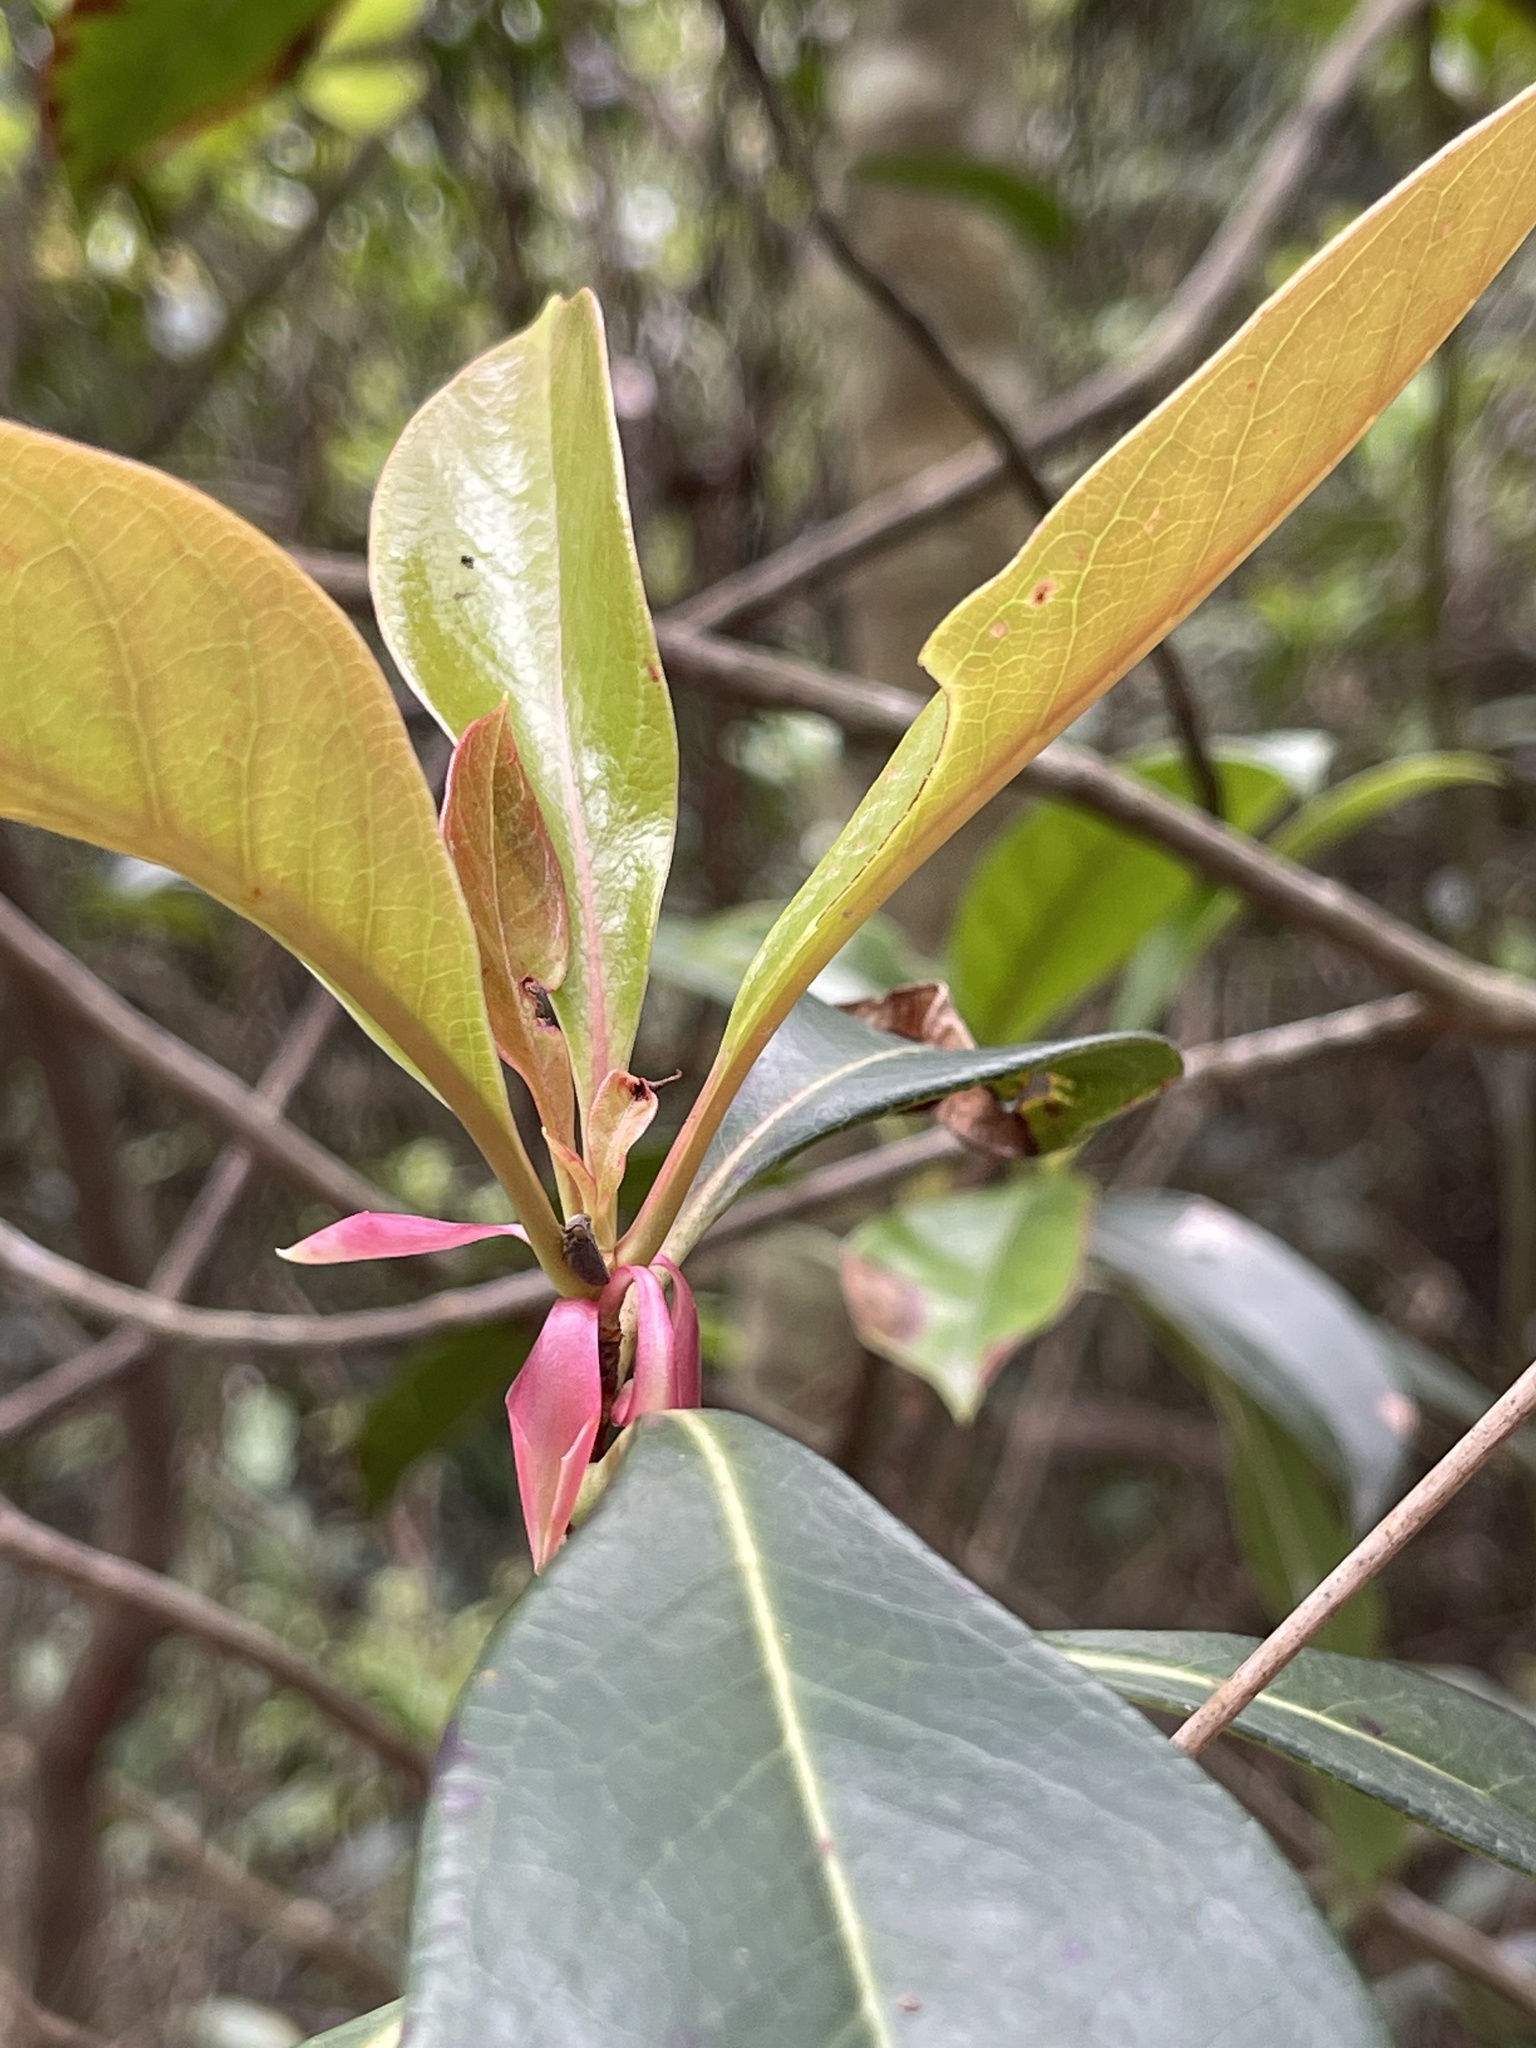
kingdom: Plantae
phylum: Tracheophyta
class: Magnoliopsida
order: Ericales
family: Ericaceae
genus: Enkianthus
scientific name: Enkianthus quinqueflorus
